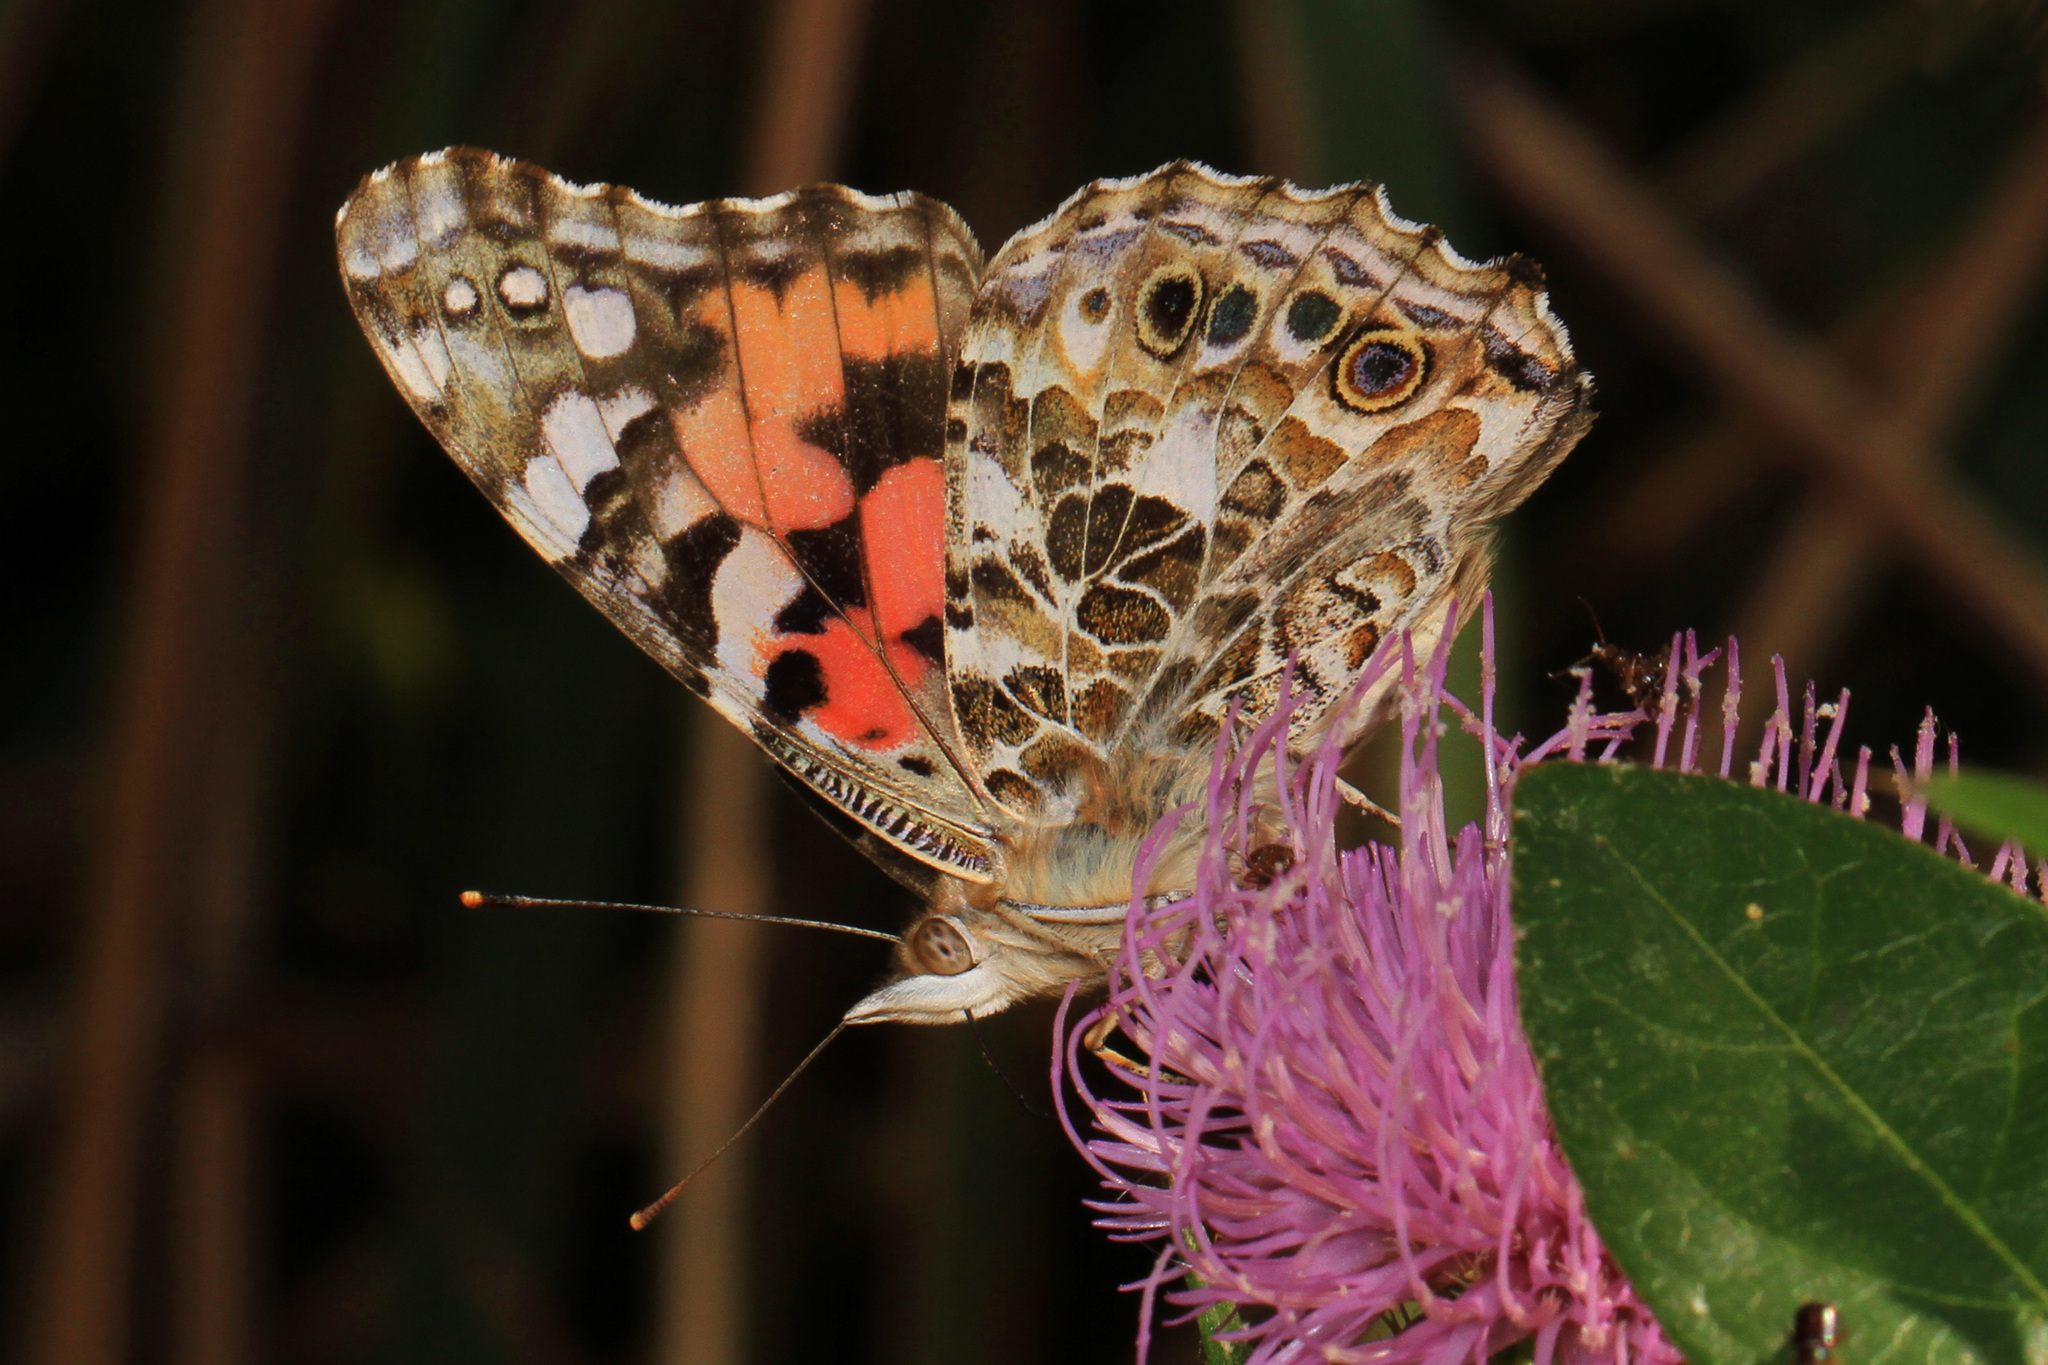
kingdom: Animalia
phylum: Arthropoda
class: Insecta
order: Lepidoptera
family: Nymphalidae
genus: Vanessa
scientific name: Vanessa cardui
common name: Painted lady
